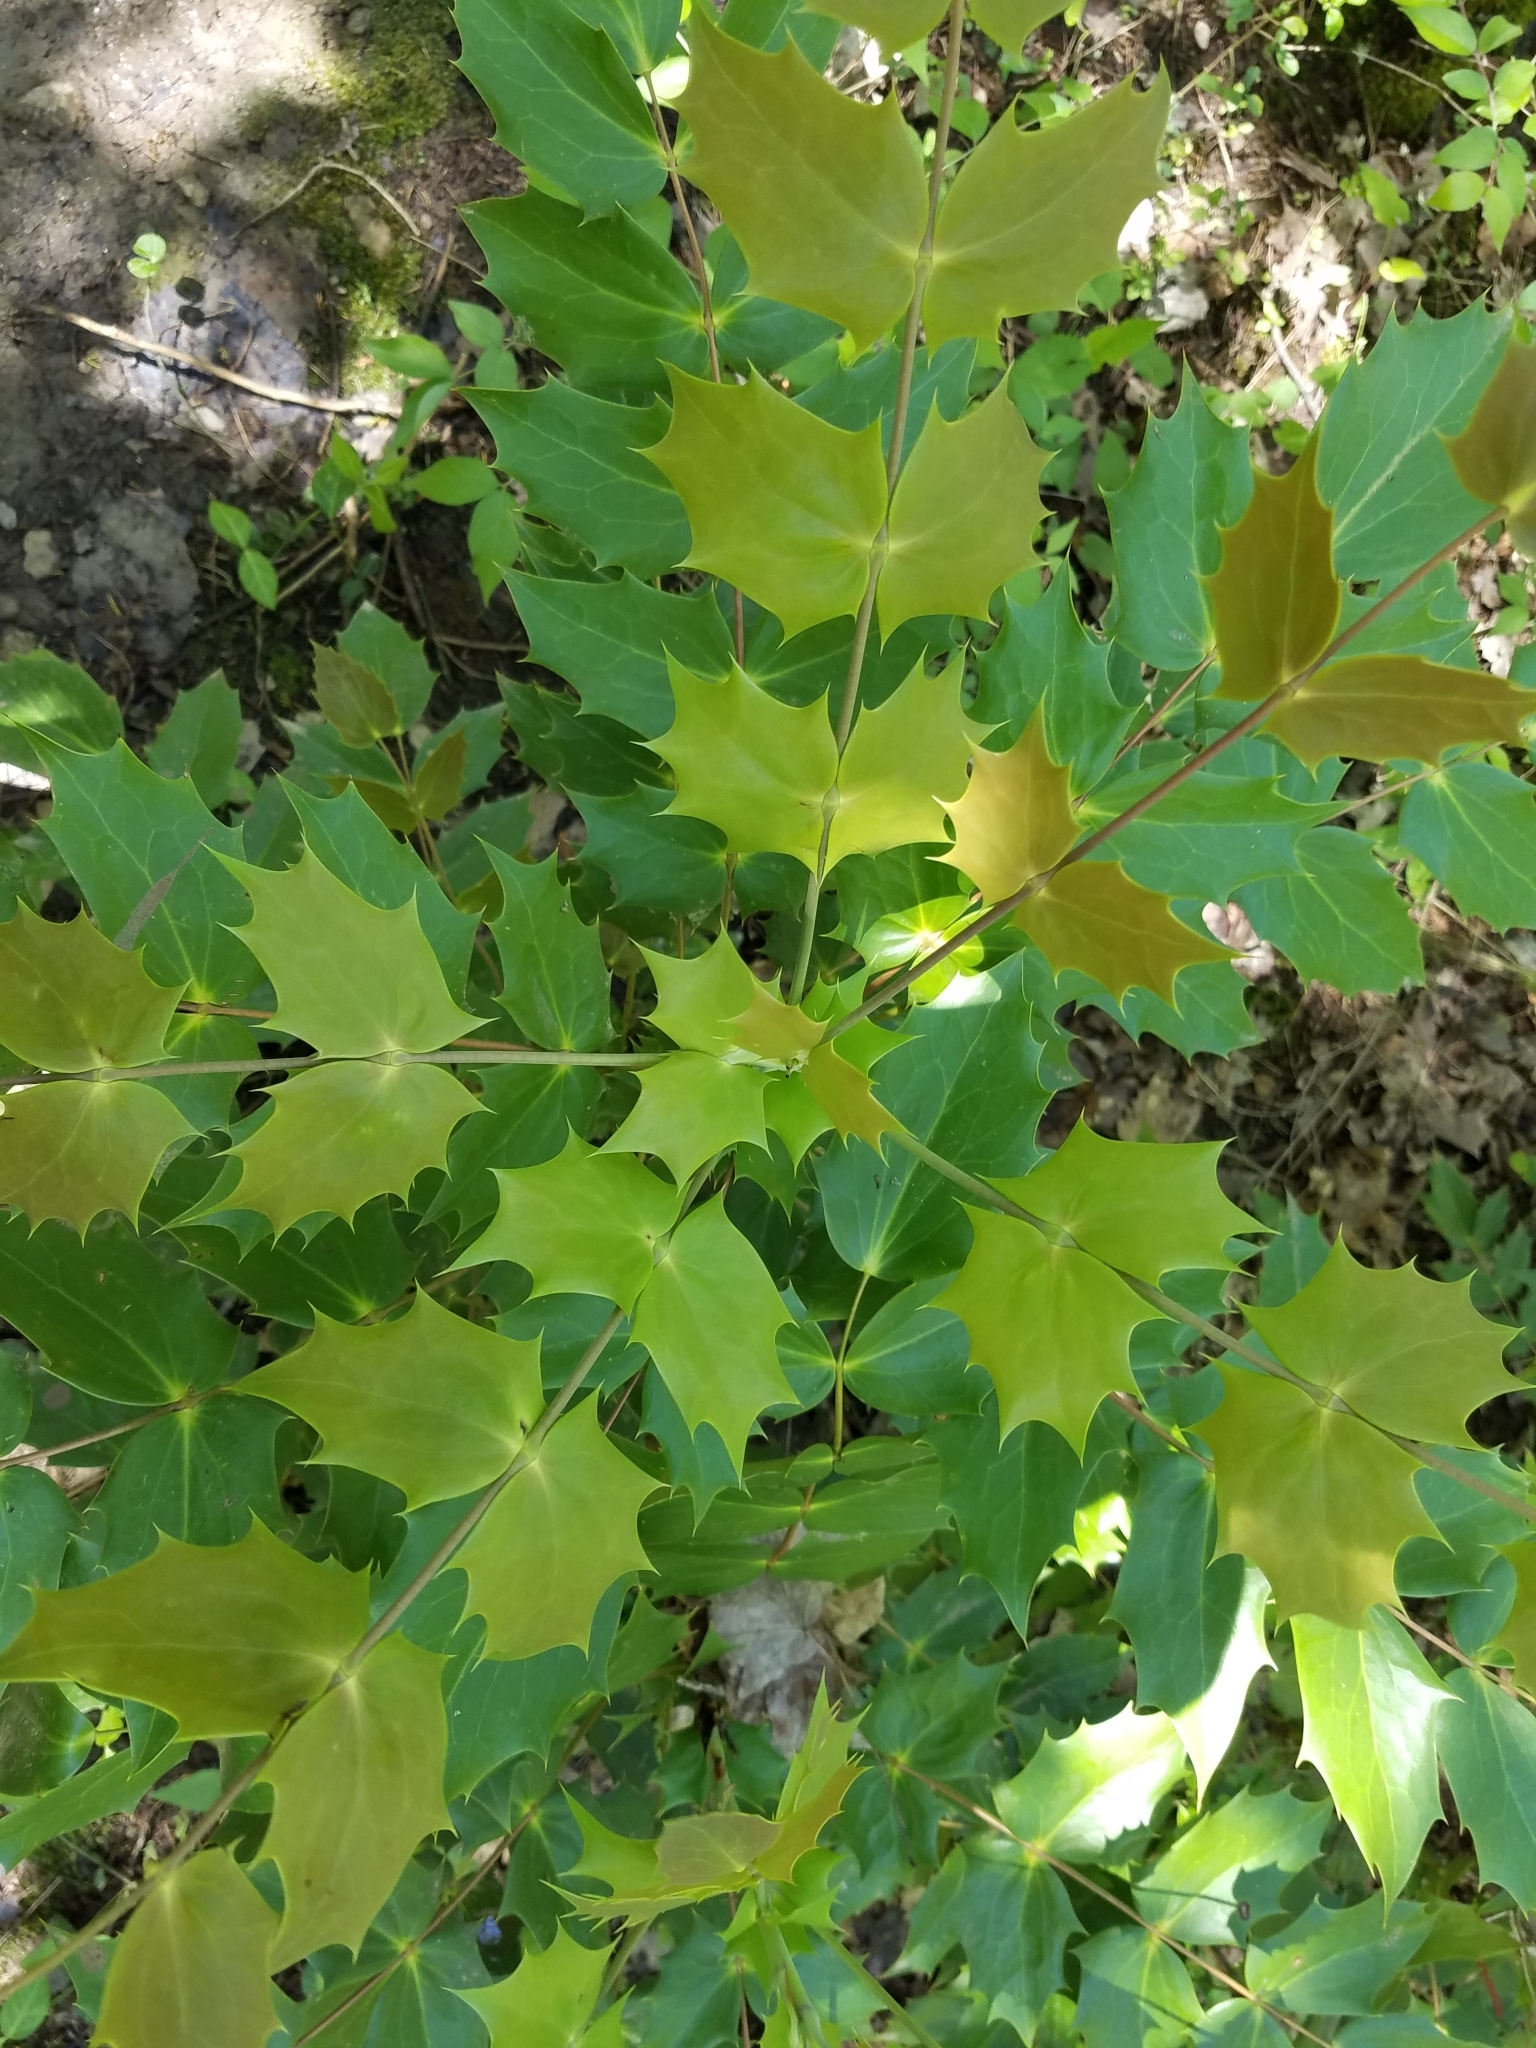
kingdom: Plantae
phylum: Tracheophyta
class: Magnoliopsida
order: Ranunculales
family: Berberidaceae
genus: Mahonia
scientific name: Mahonia bealei
